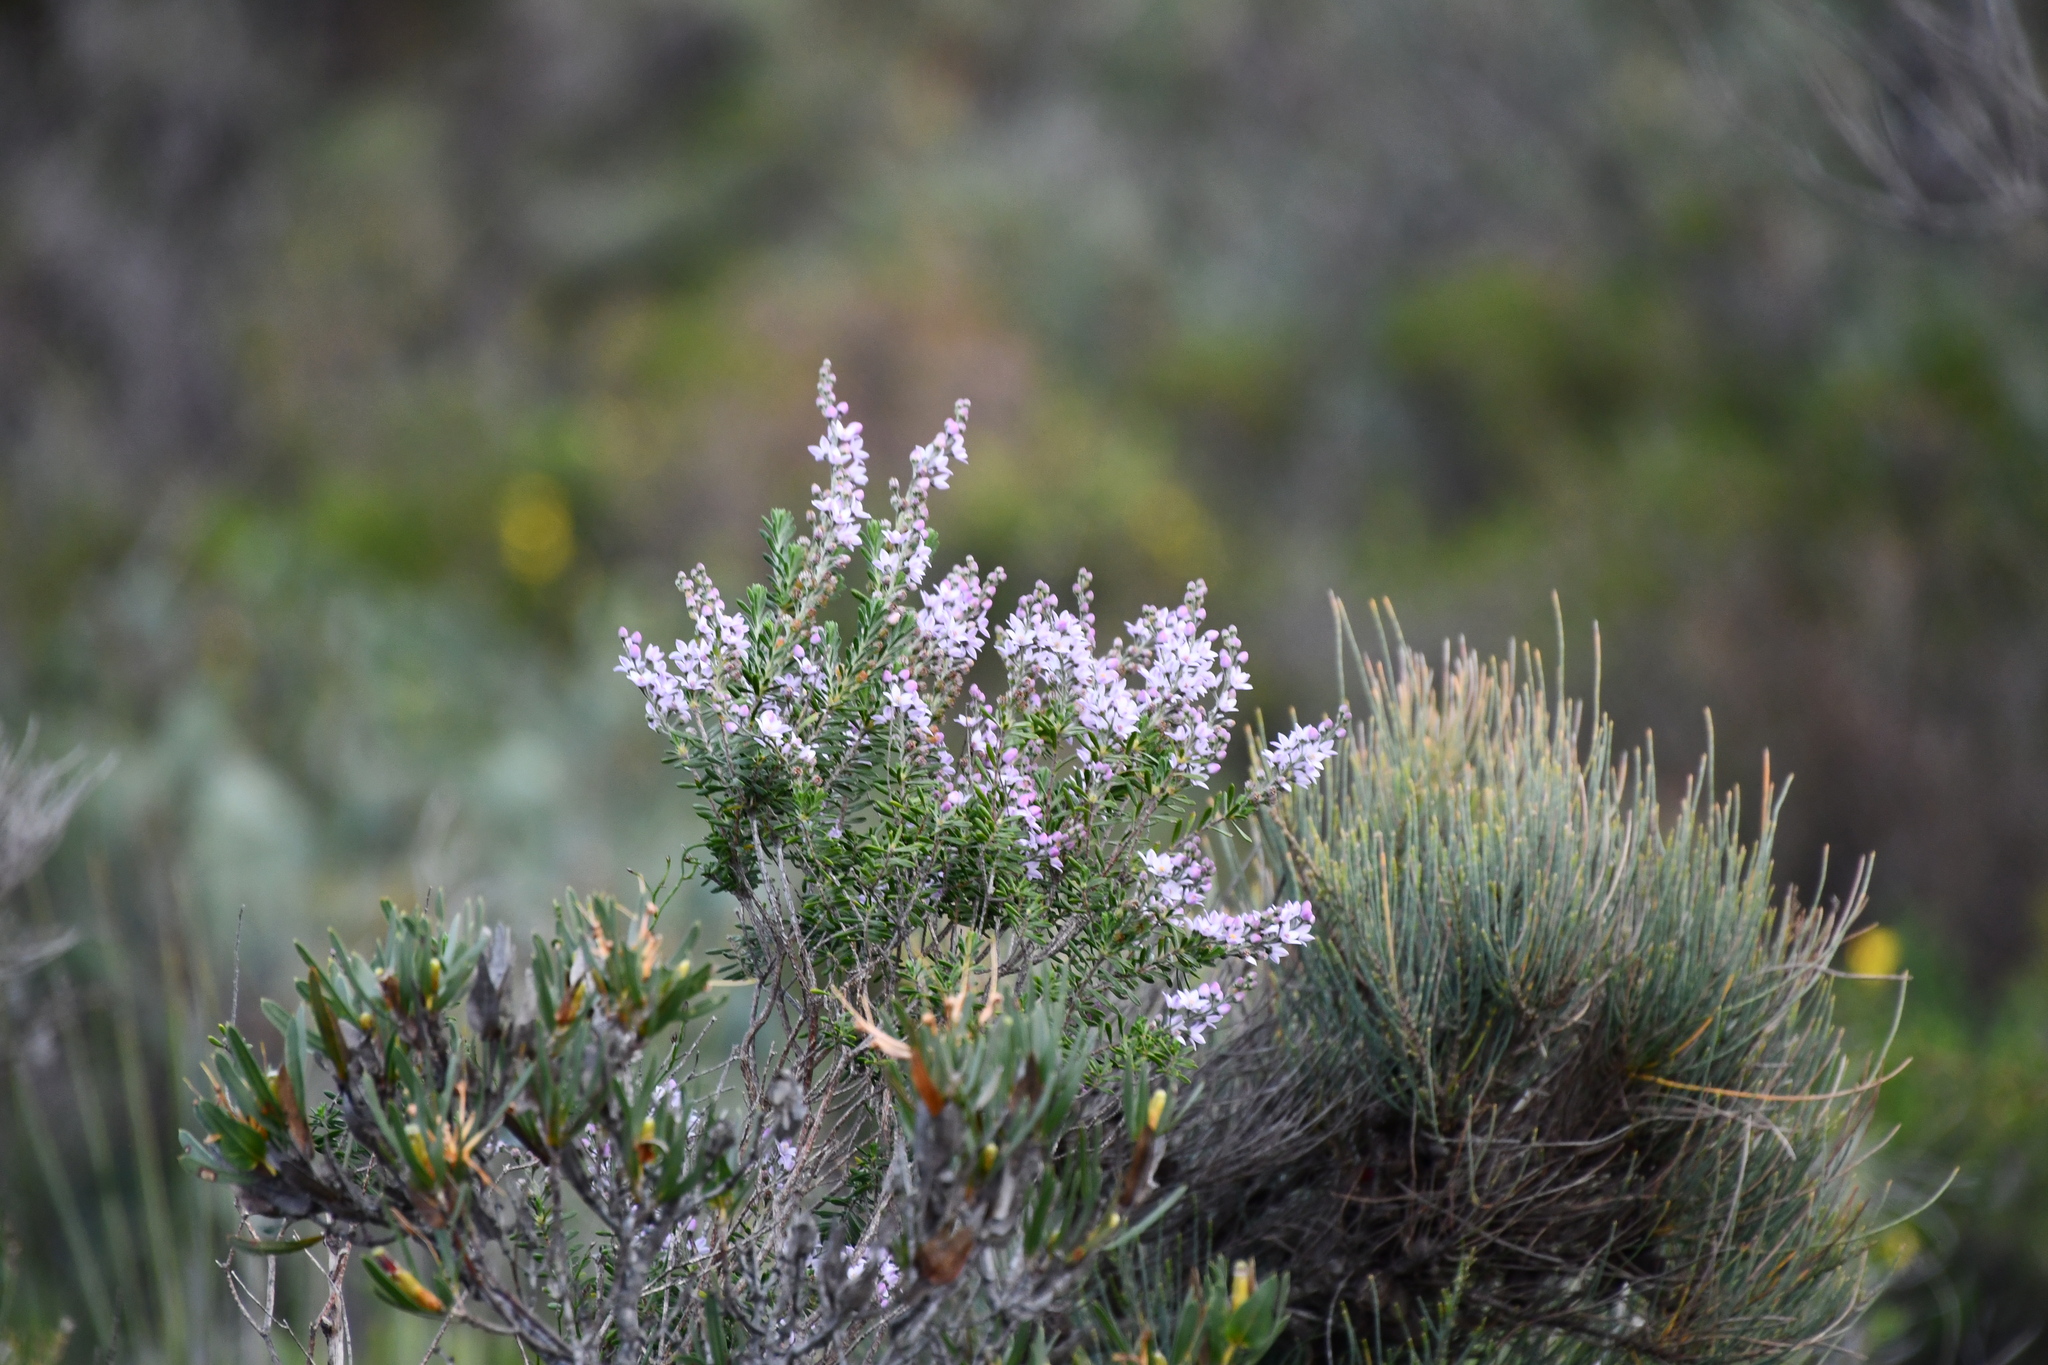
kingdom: Plantae
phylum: Tracheophyta
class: Magnoliopsida
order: Sapindales
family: Rutaceae
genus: Philotheca
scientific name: Philotheca spicata
